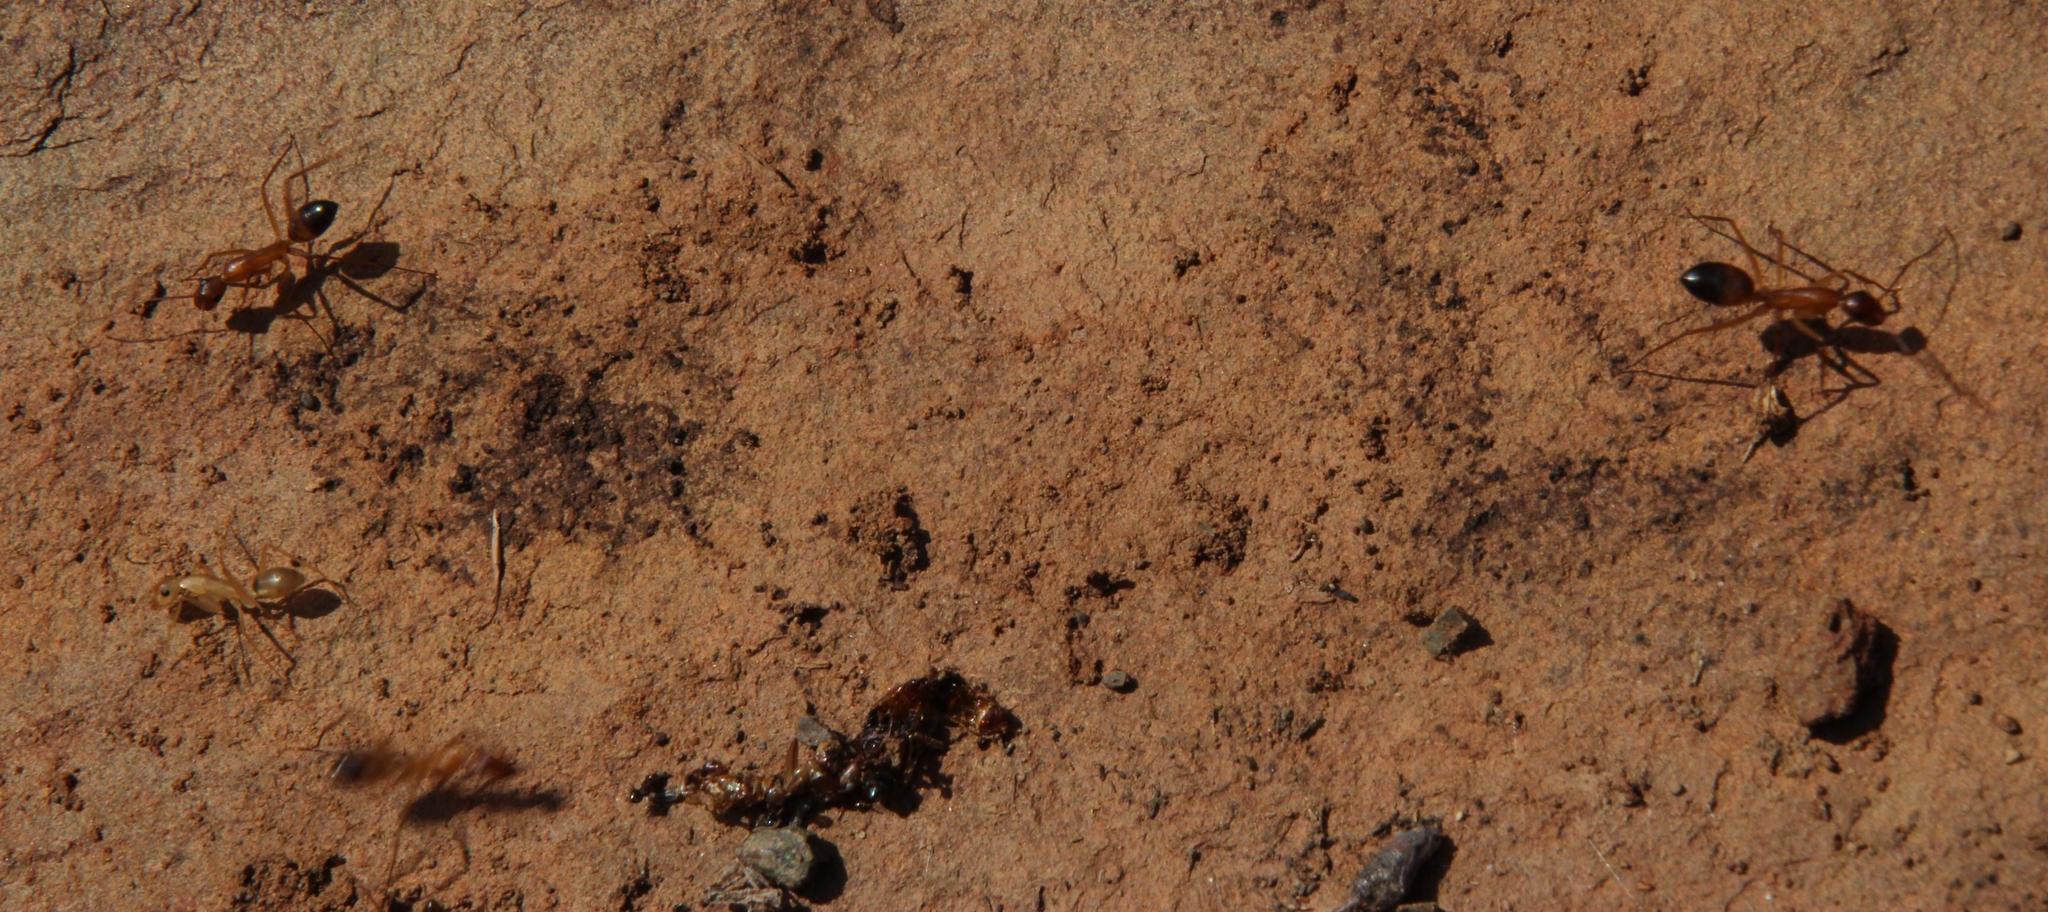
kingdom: Animalia
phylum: Arthropoda
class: Insecta
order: Hymenoptera
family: Formicidae
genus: Camponotus
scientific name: Camponotus maculatus
